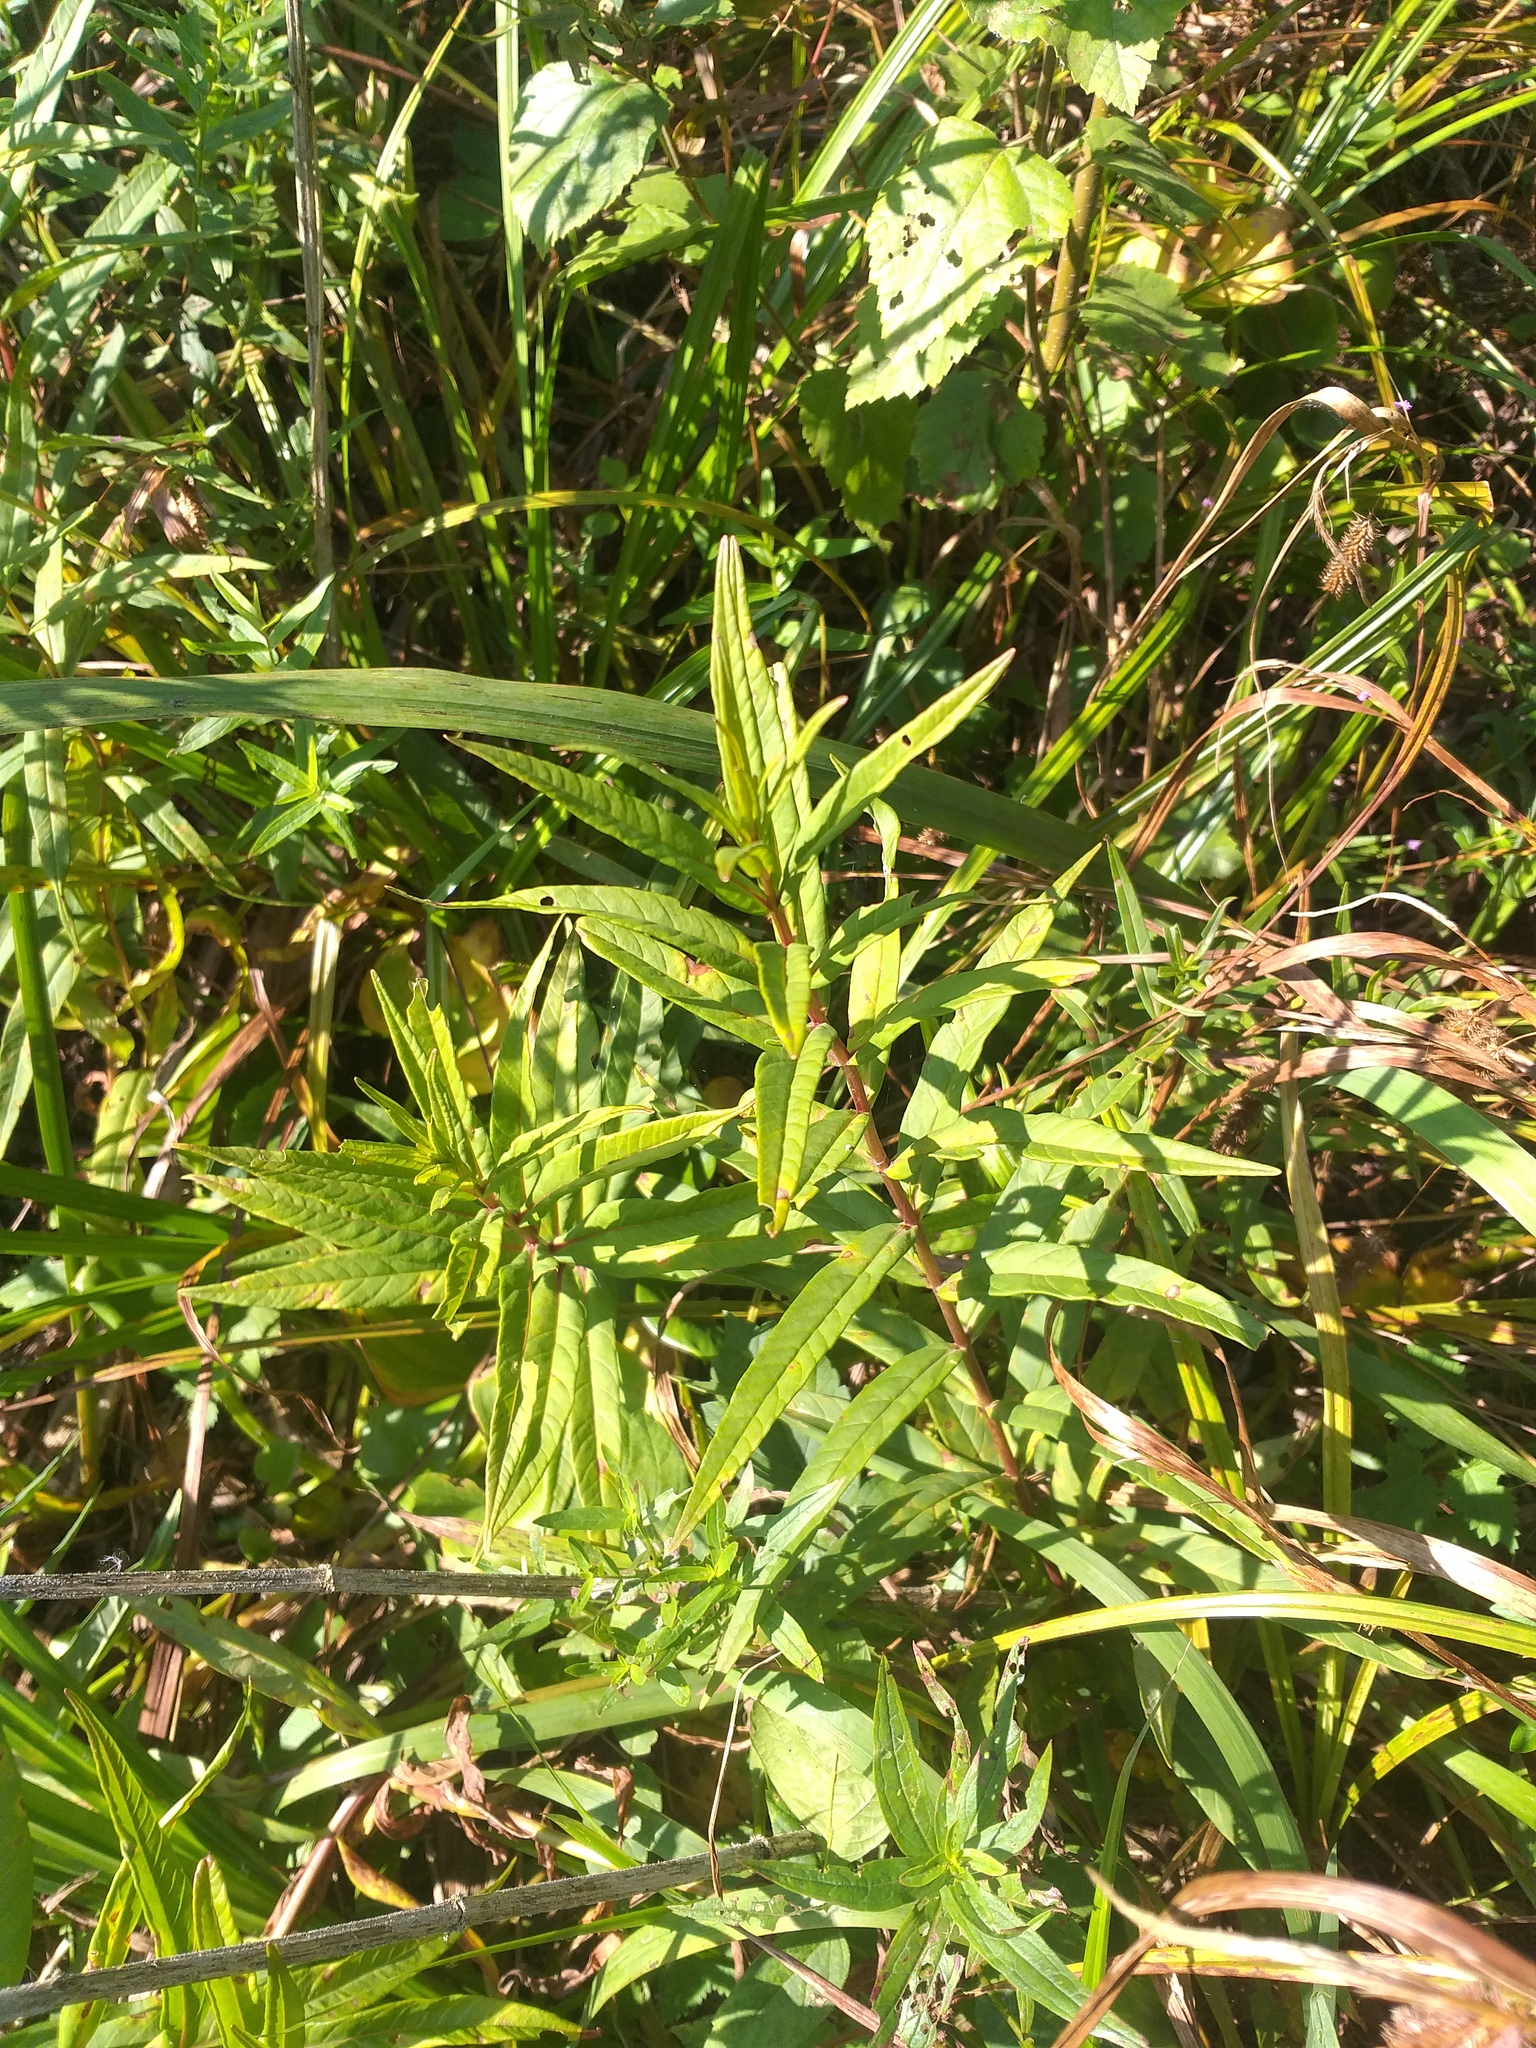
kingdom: Plantae
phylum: Tracheophyta
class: Magnoliopsida
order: Ericales
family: Primulaceae
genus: Lysimachia
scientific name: Lysimachia thyrsiflora
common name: Tufted loosestrife
